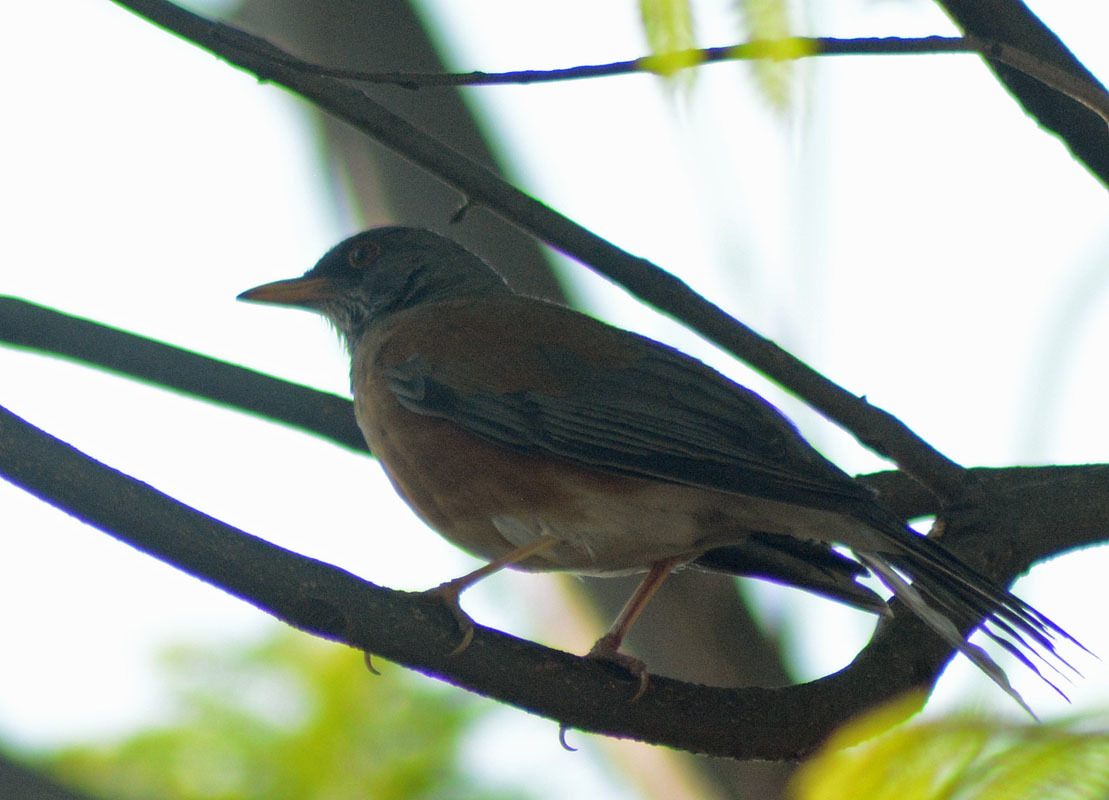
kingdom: Animalia
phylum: Chordata
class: Aves
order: Passeriformes
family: Turdidae
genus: Turdus
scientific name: Turdus rufopalliatus
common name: Rufous-backed robin
